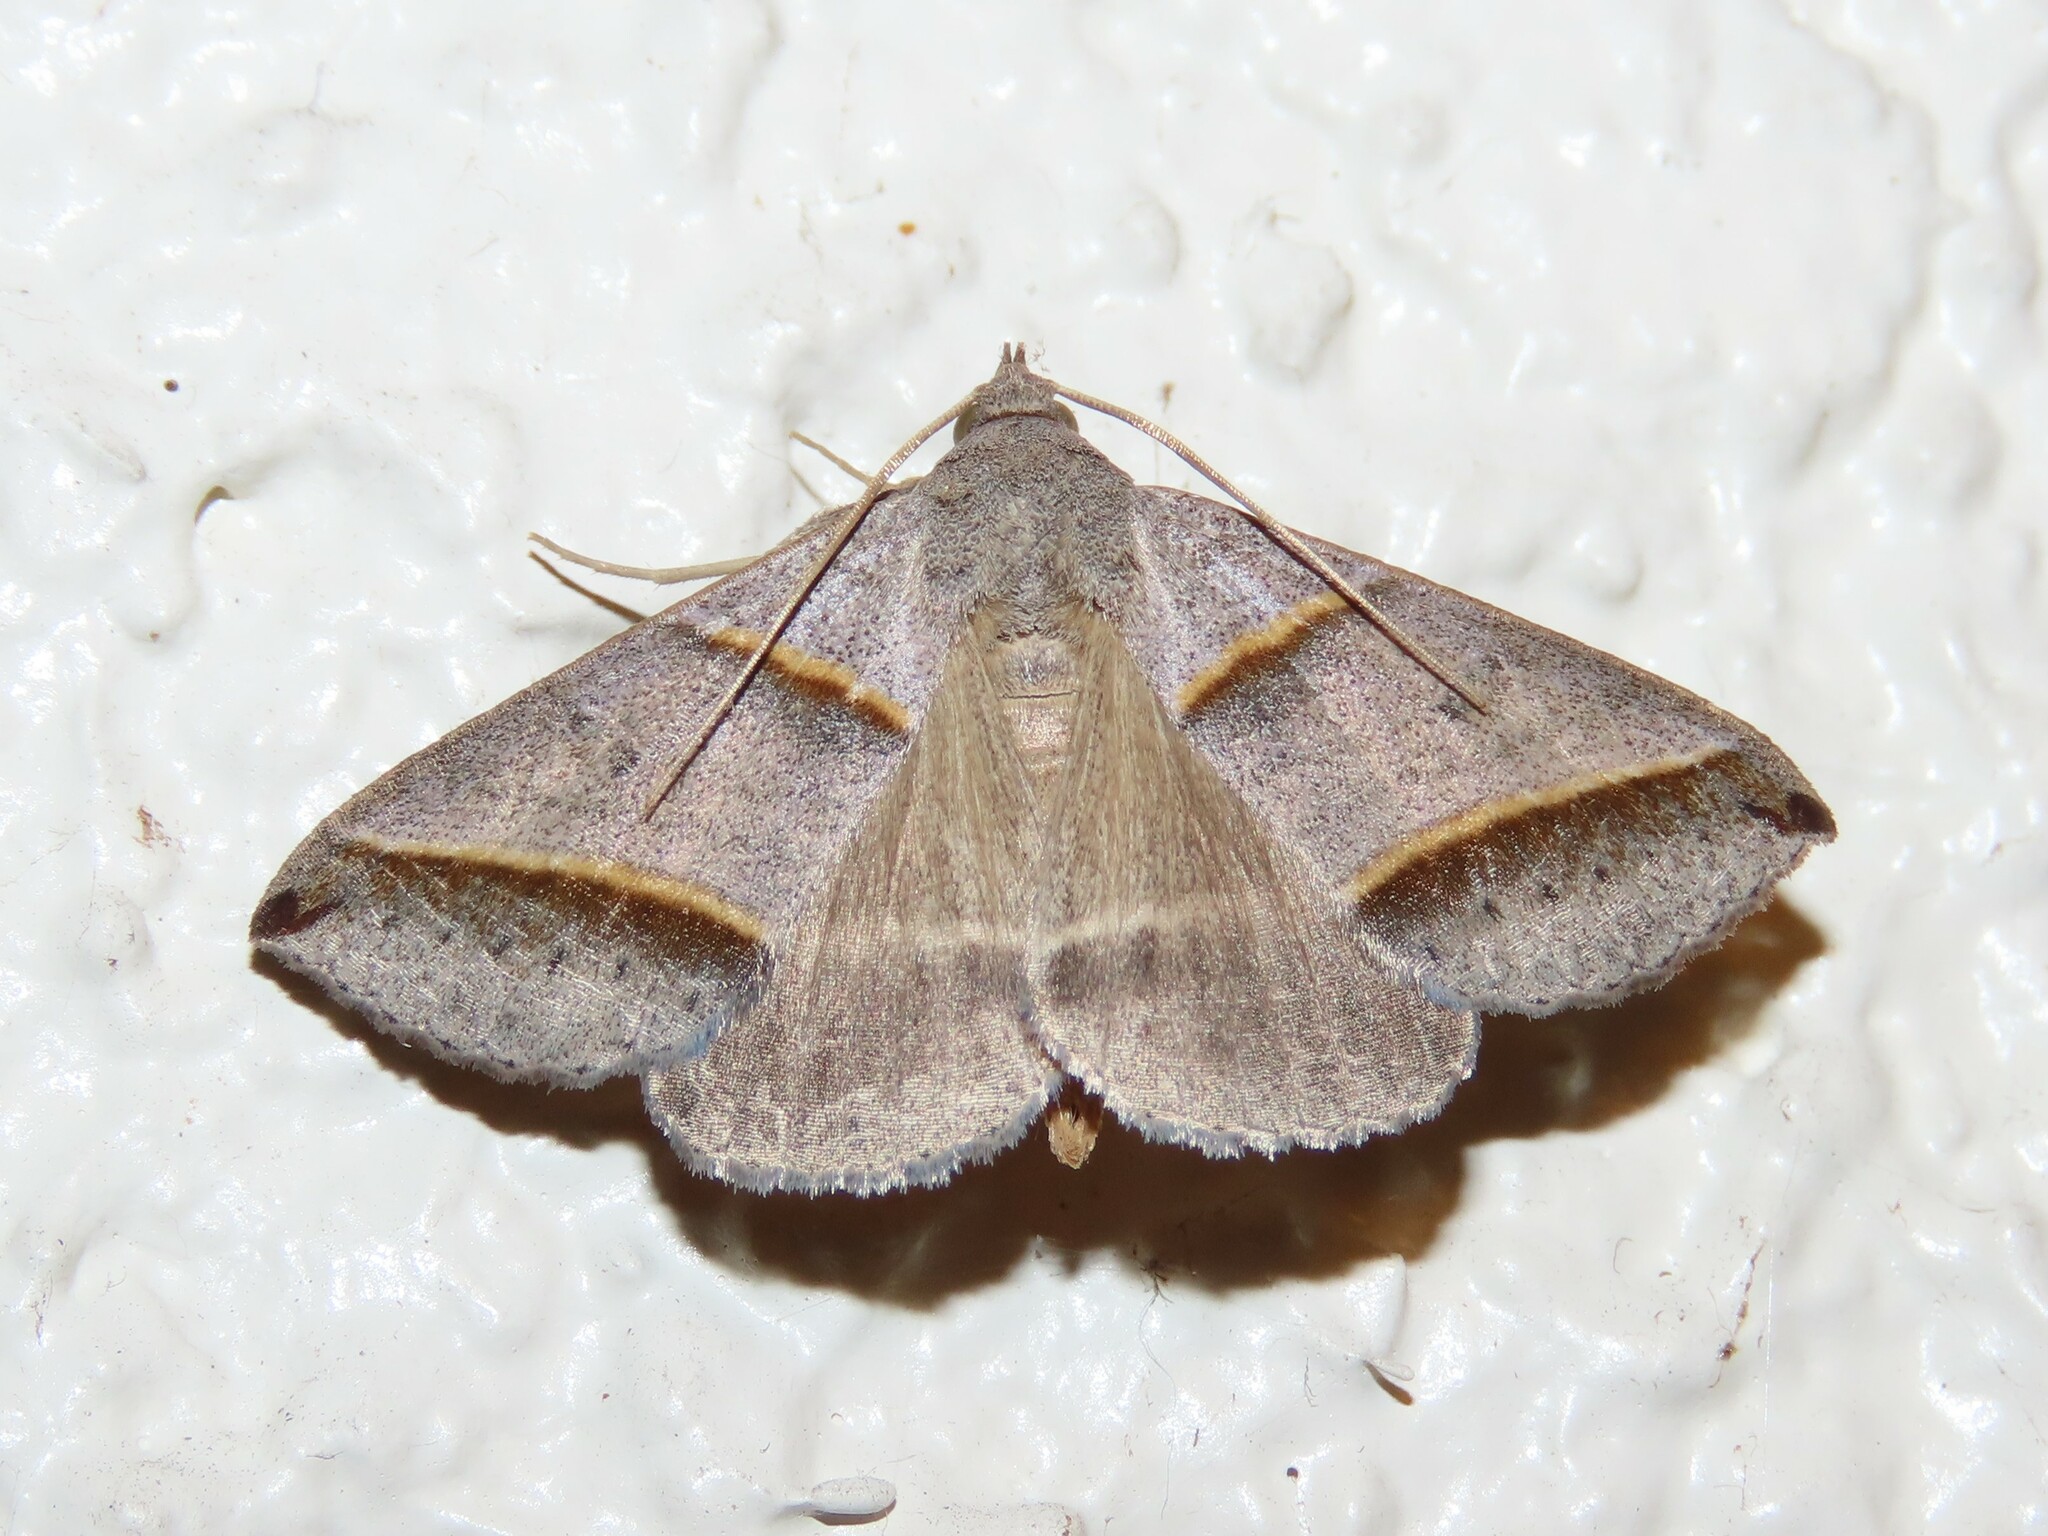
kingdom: Animalia
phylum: Arthropoda
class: Insecta
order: Lepidoptera
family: Erebidae
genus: Ptichodis
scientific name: Ptichodis vinculum
